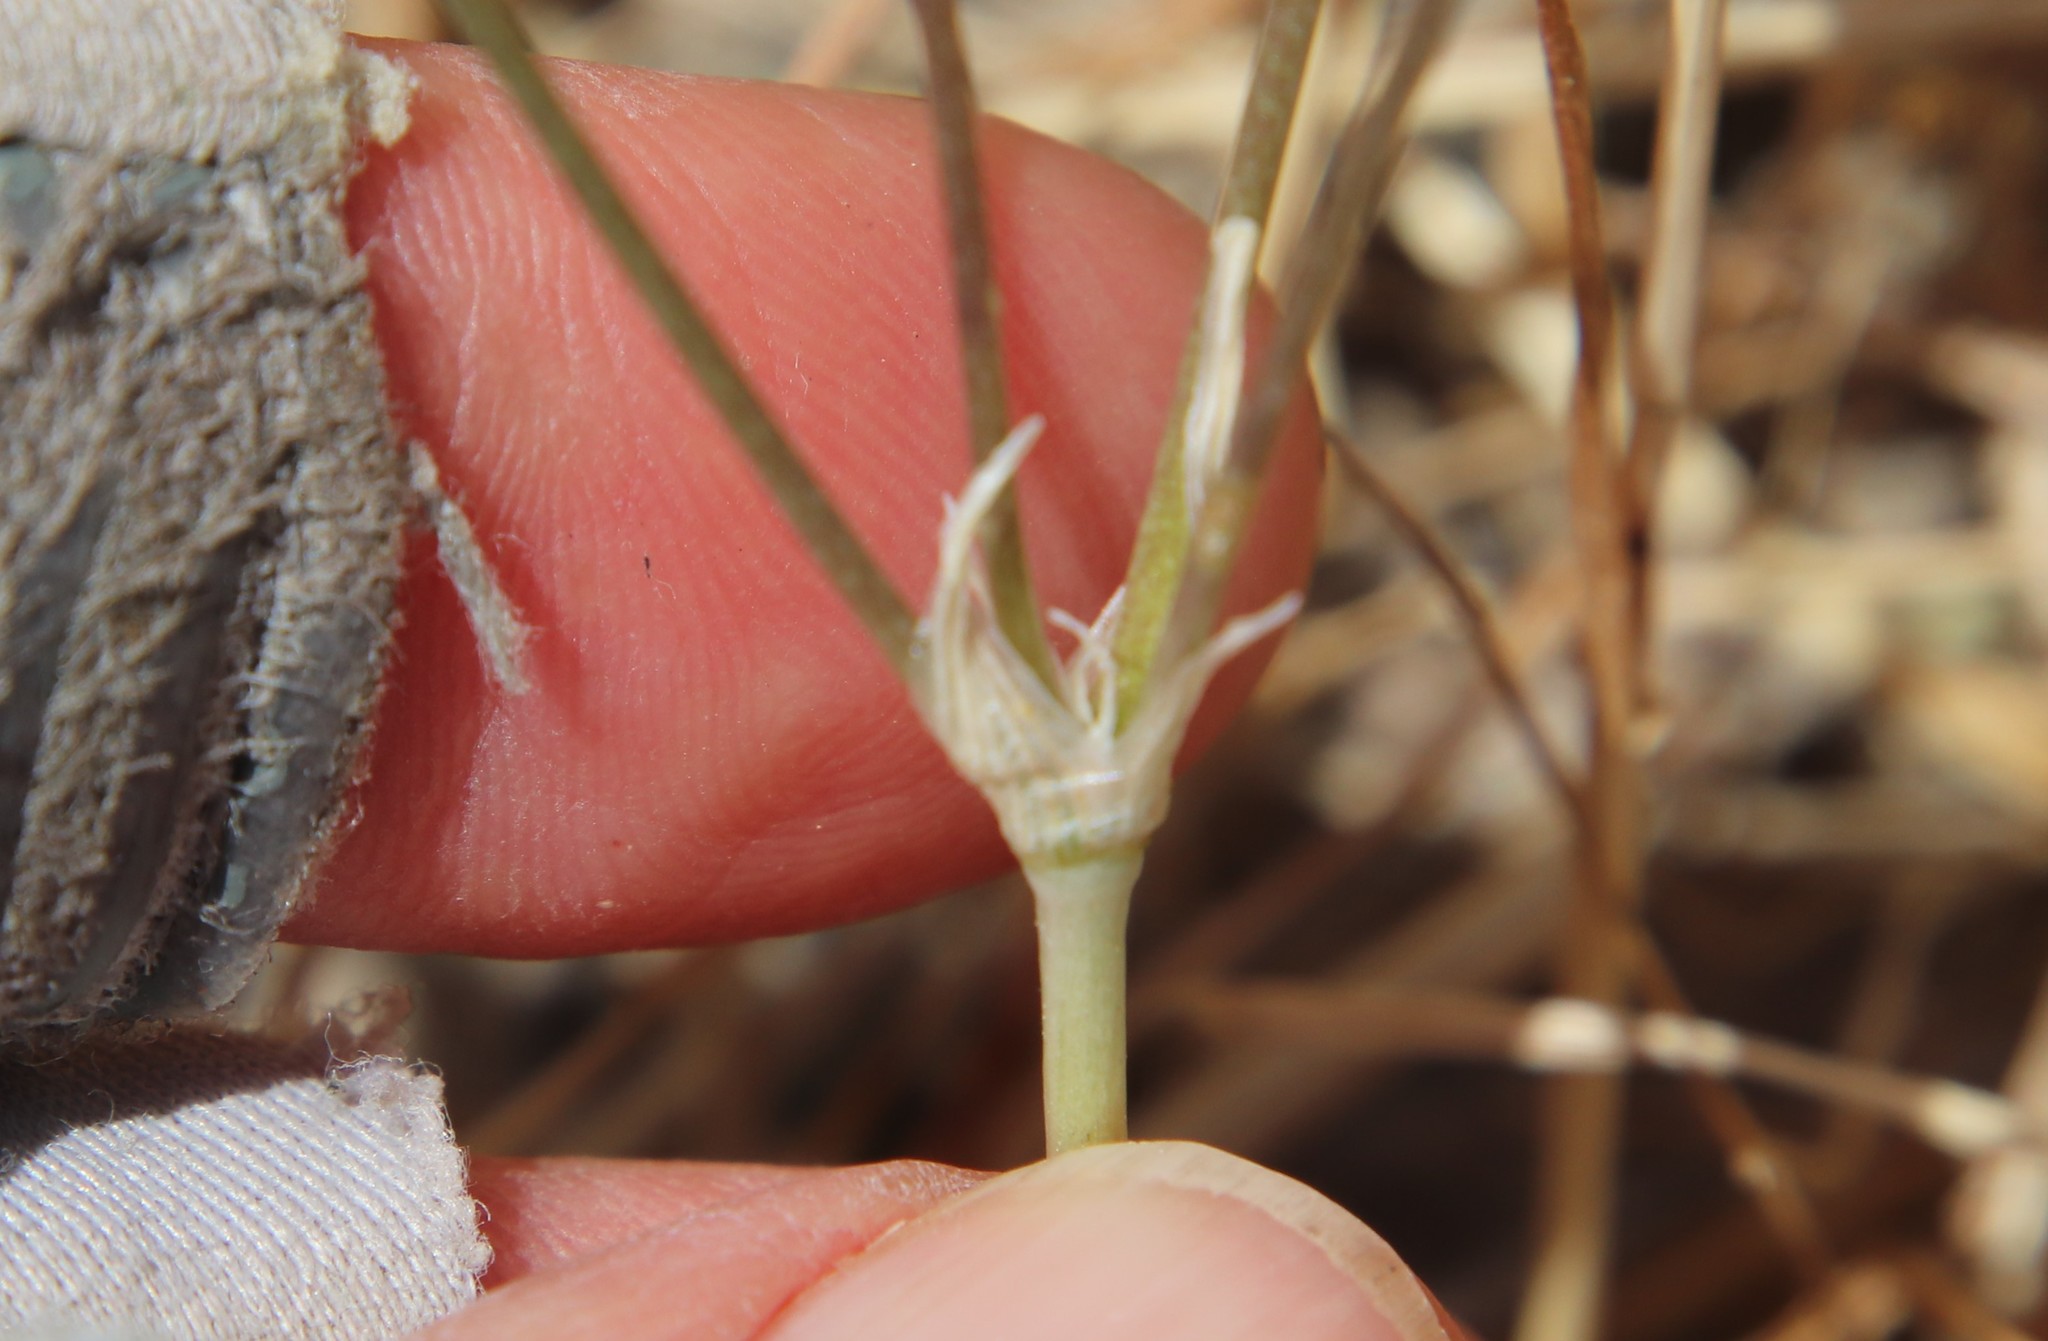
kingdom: Plantae
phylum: Tracheophyta
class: Liliopsida
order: Asparagales
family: Asparagaceae
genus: Brodiaea
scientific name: Brodiaea terrestris
